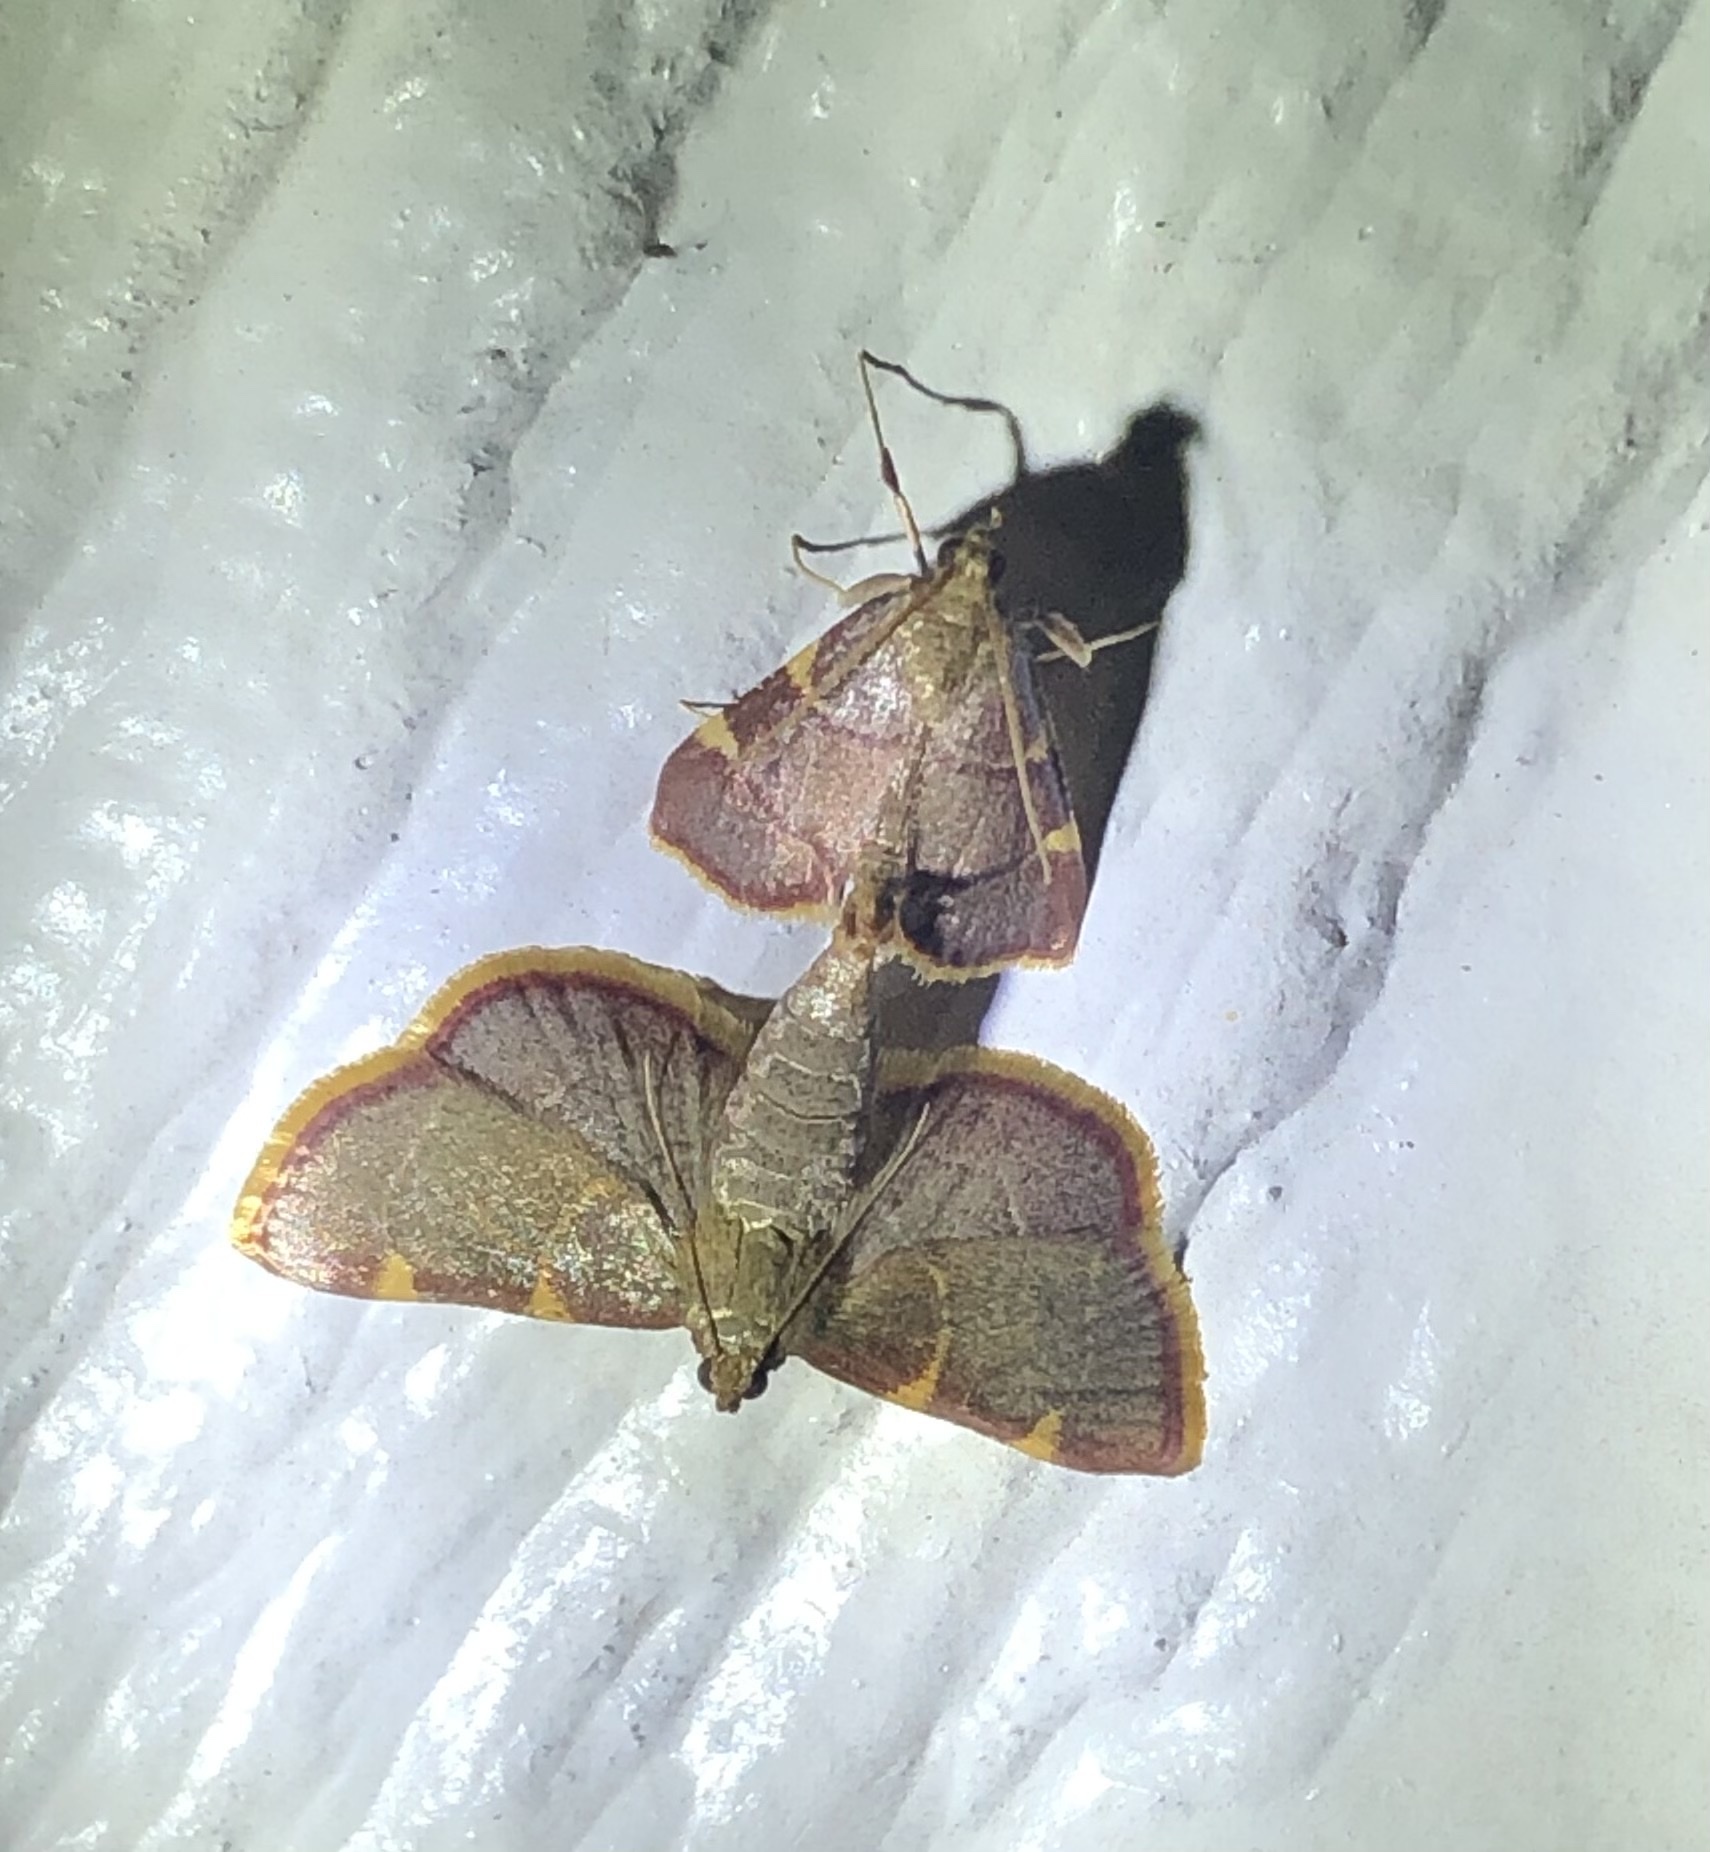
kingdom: Animalia
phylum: Arthropoda
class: Insecta
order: Lepidoptera
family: Pyralidae
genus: Hypsopygia
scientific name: Hypsopygia olinalis
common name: Yellow-fringed dolichomia moth
